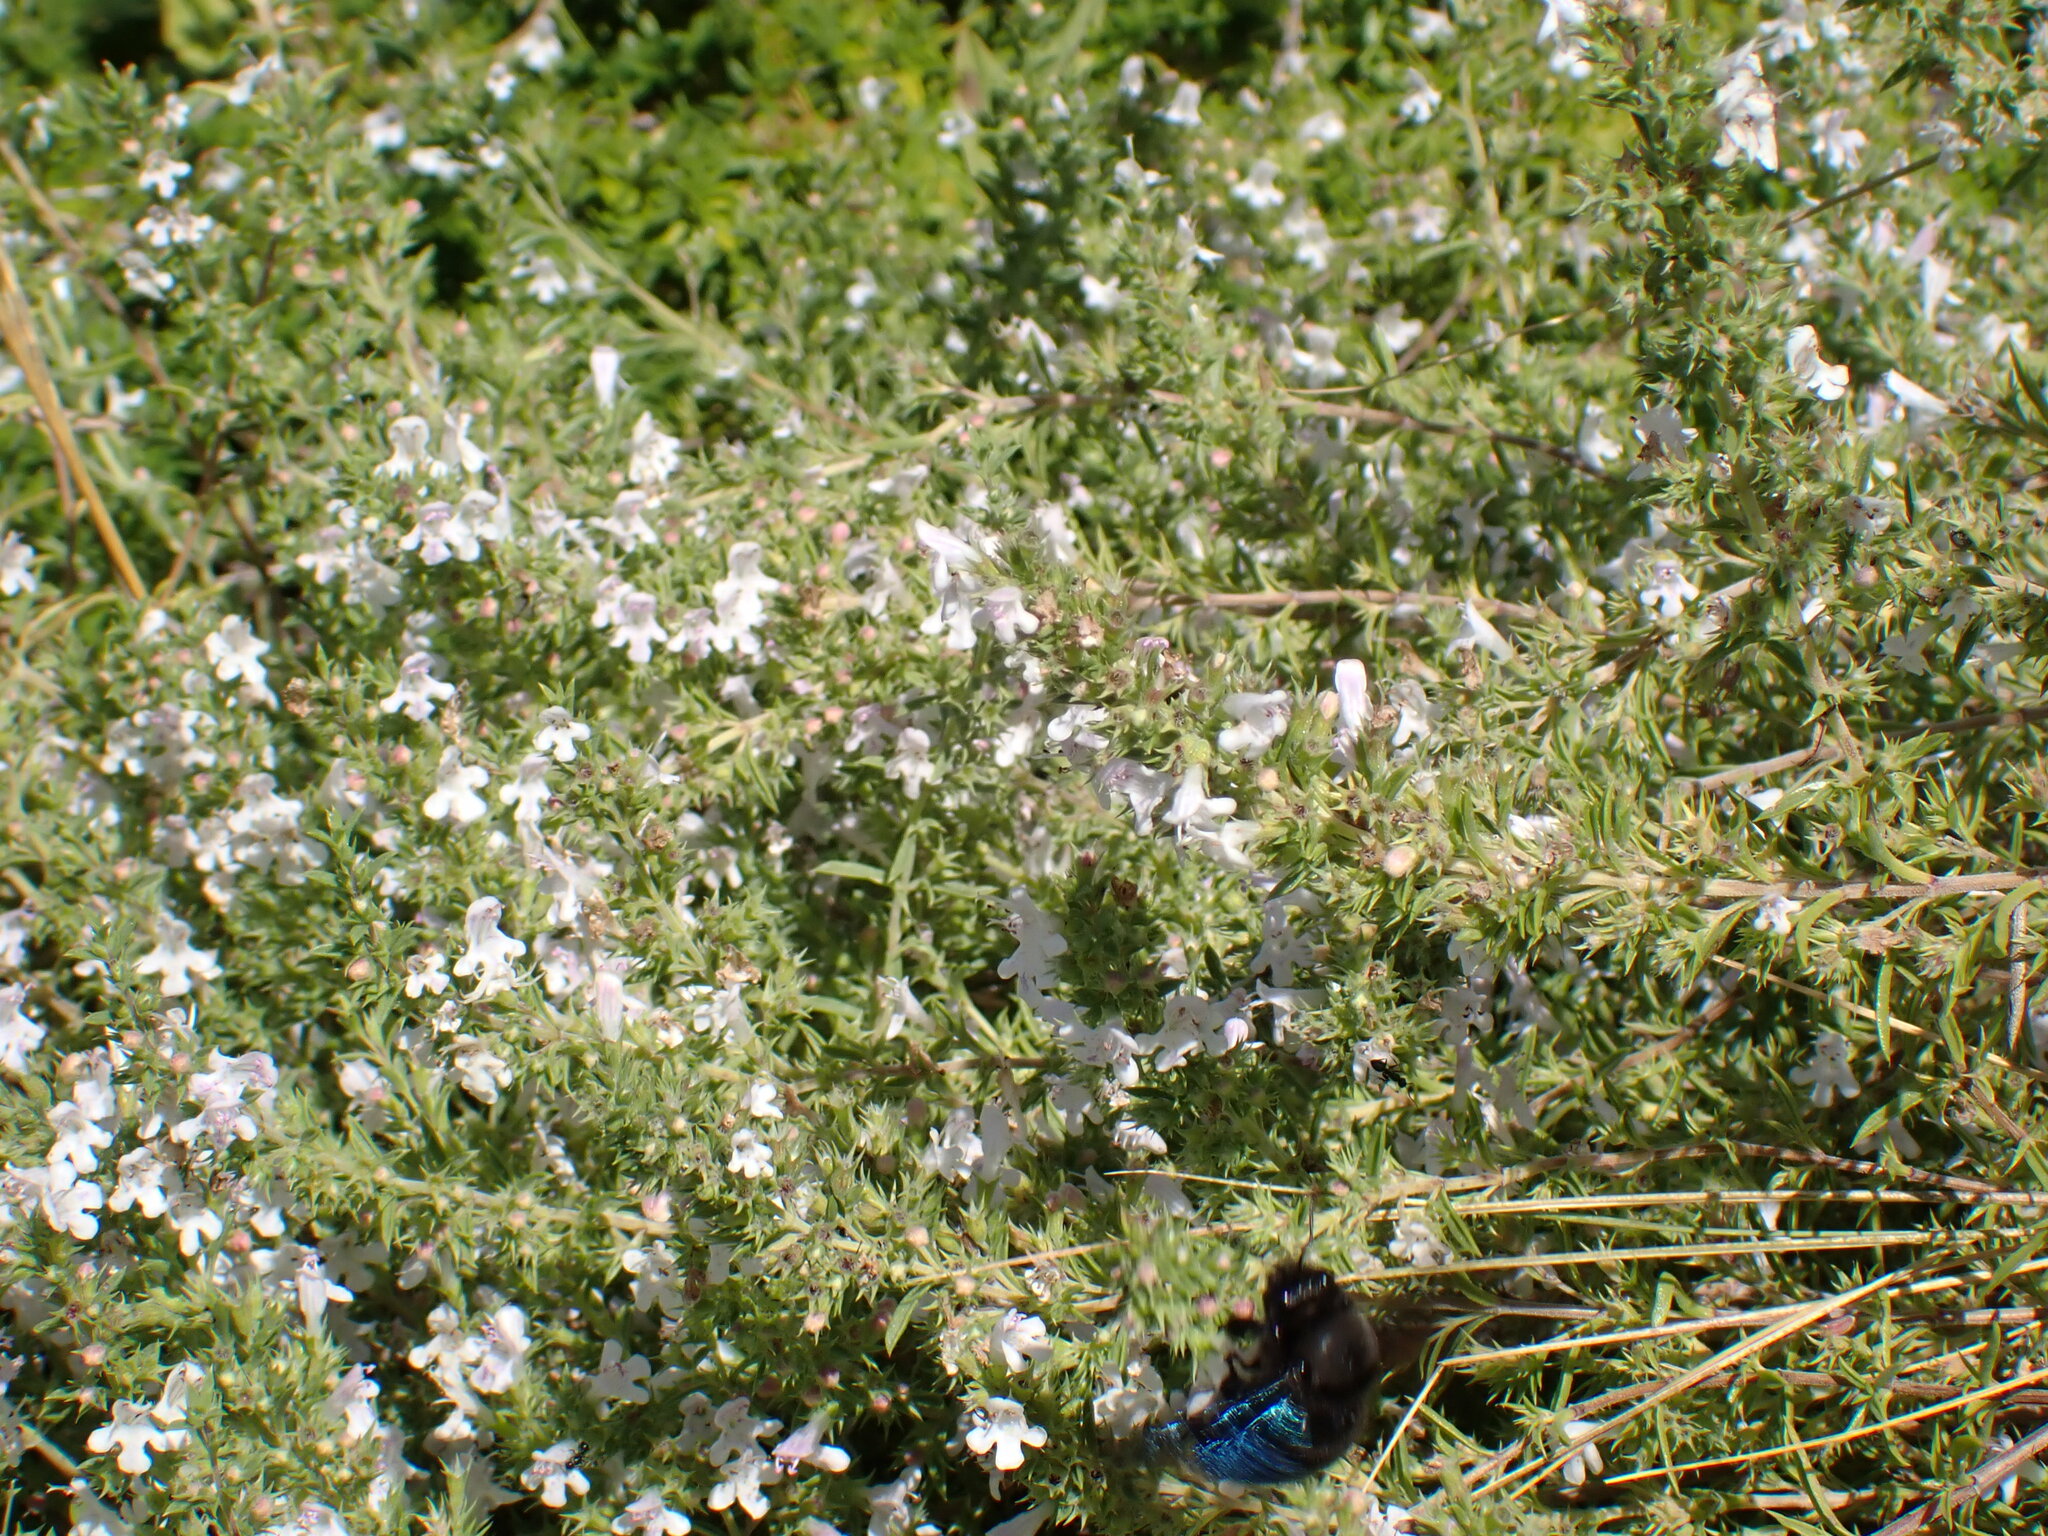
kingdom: Animalia
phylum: Arthropoda
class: Insecta
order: Hymenoptera
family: Apidae
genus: Xylocopa
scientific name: Xylocopa violacea
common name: Violet carpenter bee
